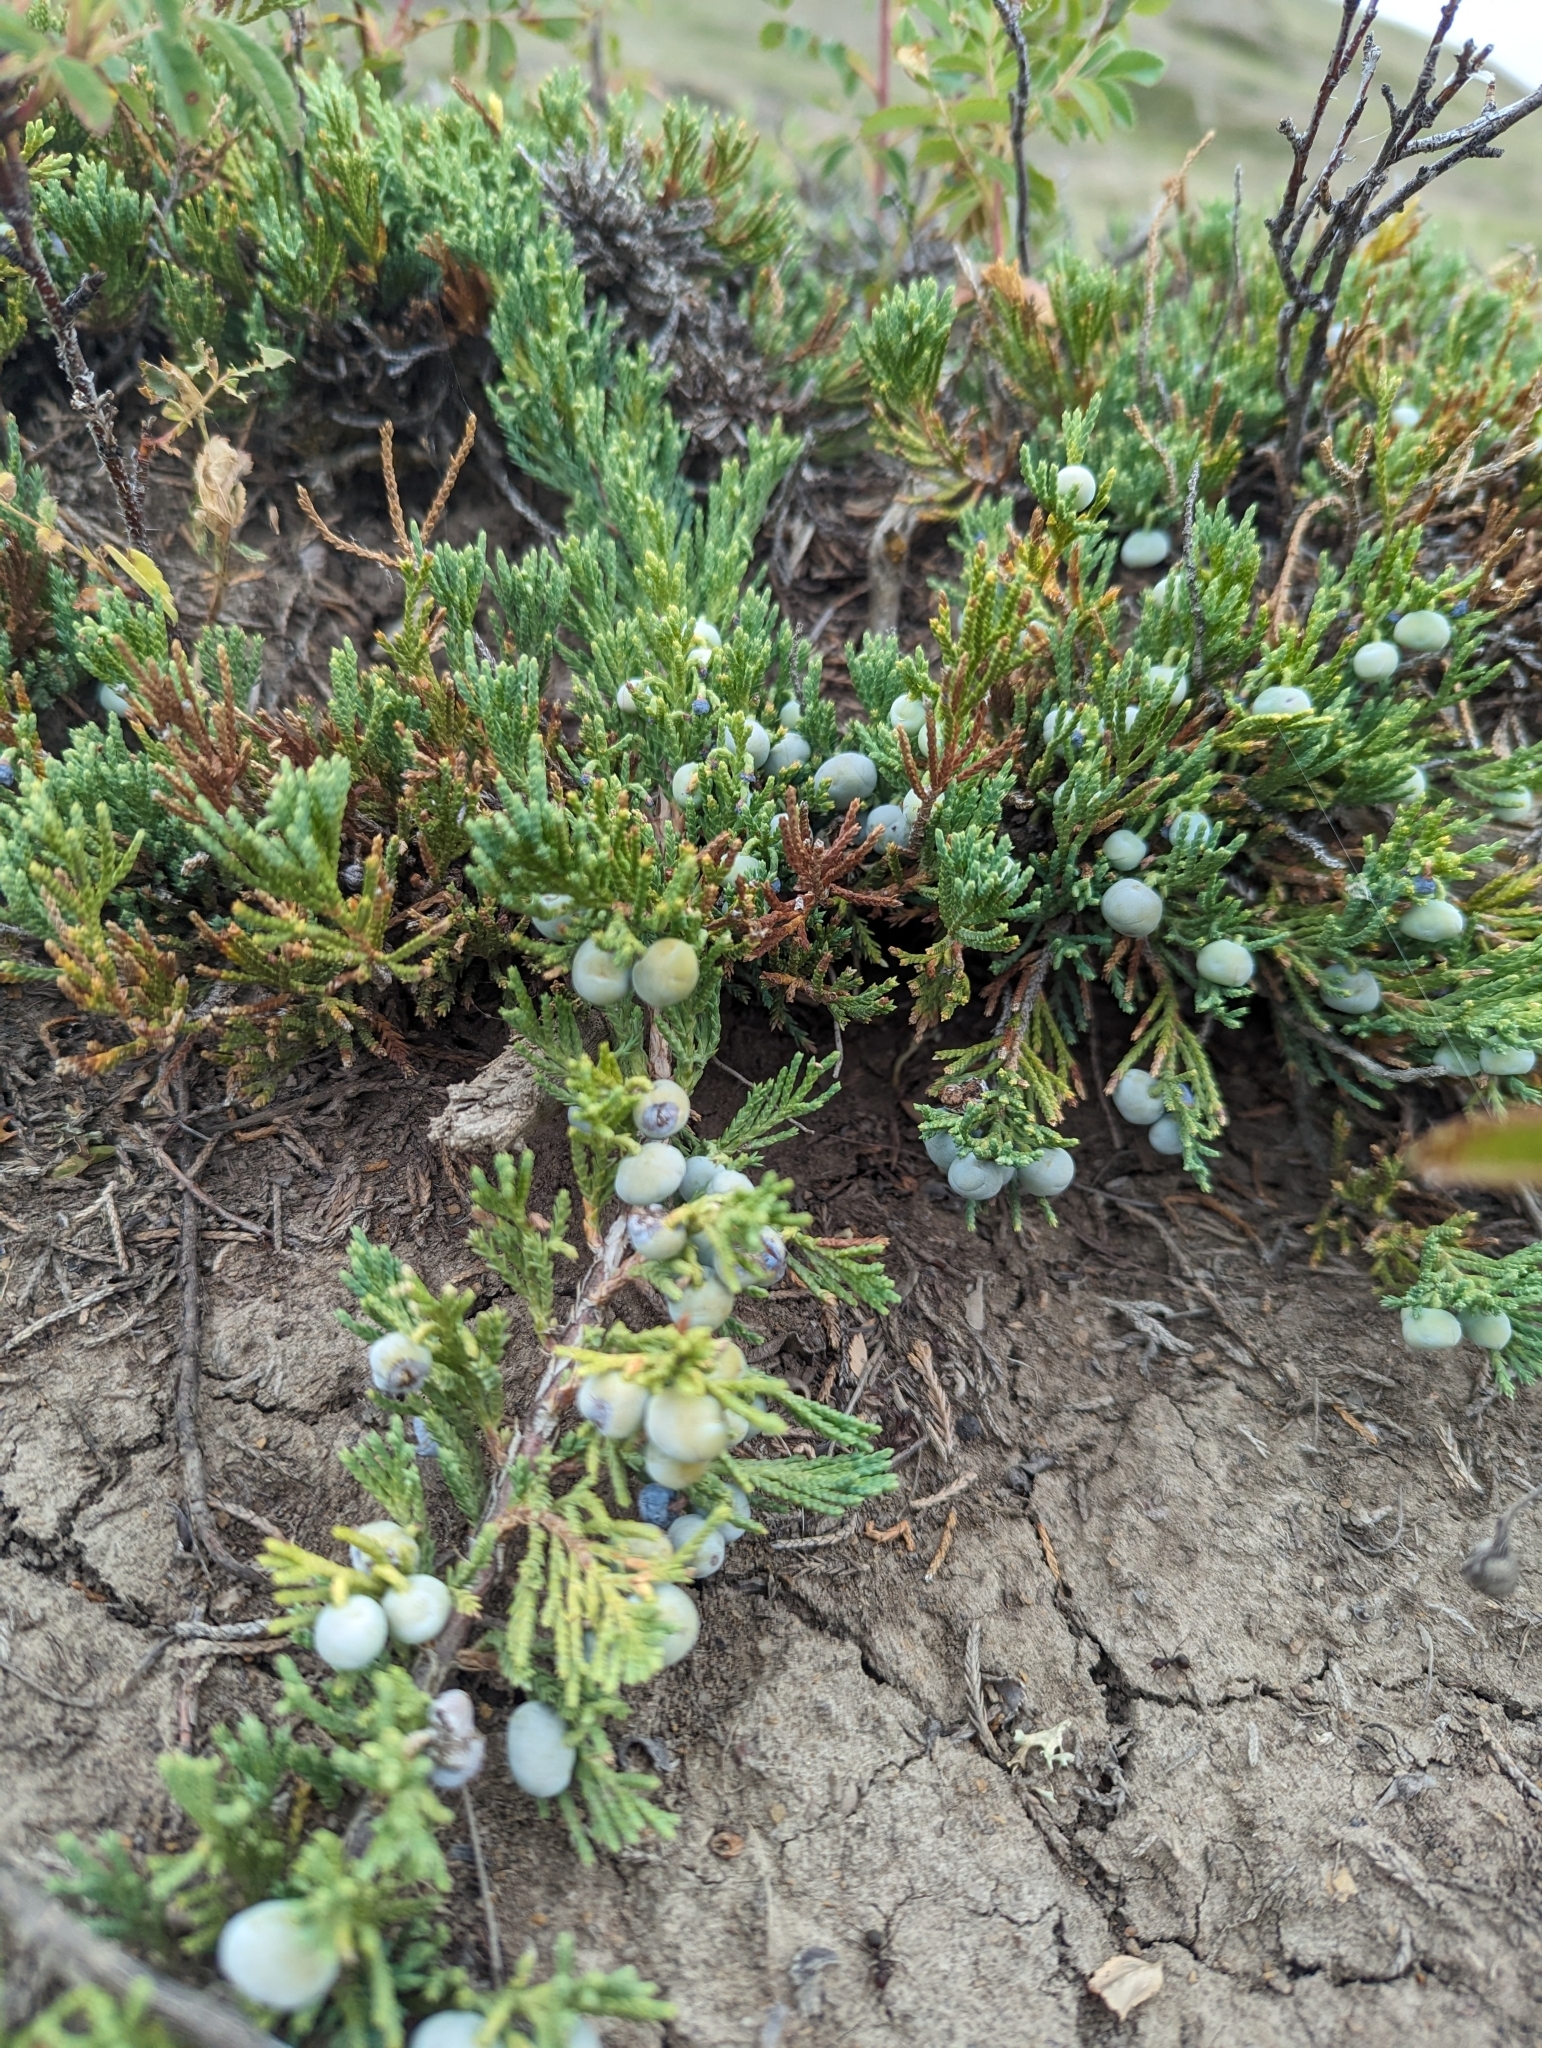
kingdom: Plantae
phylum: Tracheophyta
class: Pinopsida
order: Pinales
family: Cupressaceae
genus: Juniperus
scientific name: Juniperus horizontalis
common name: Creeping juniper
